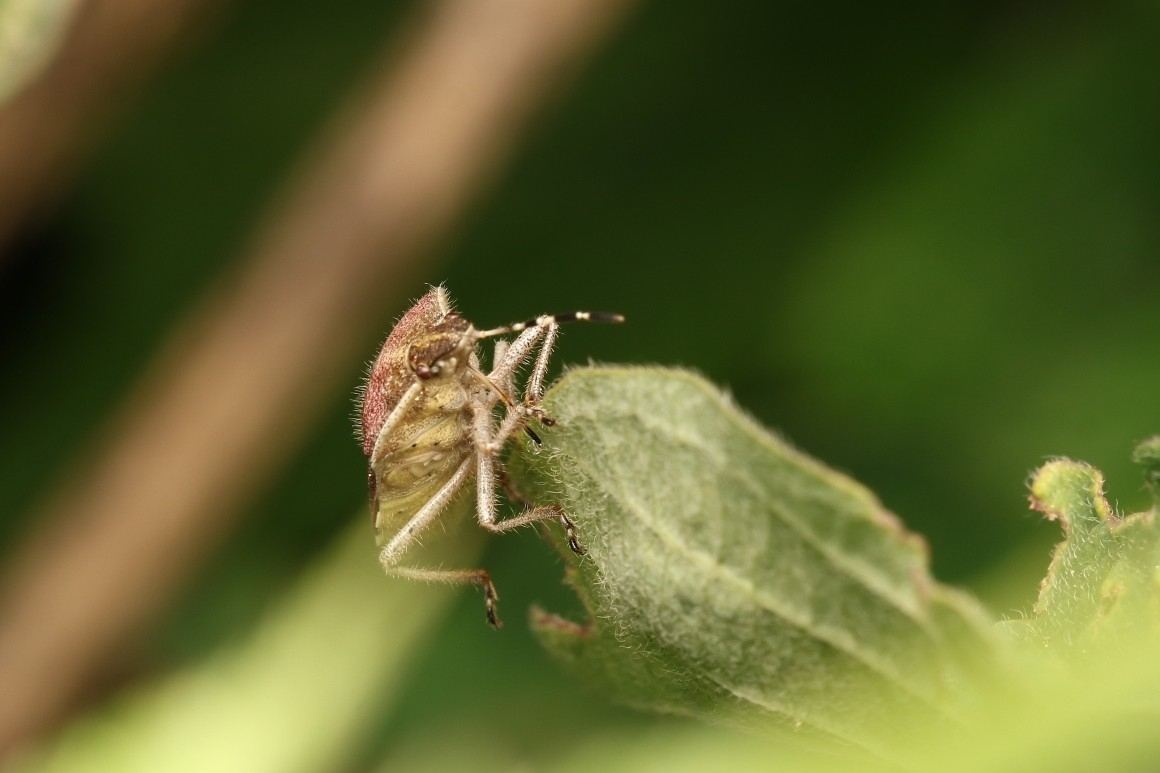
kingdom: Animalia
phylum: Arthropoda
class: Insecta
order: Hemiptera
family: Pentatomidae
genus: Dolycoris
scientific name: Dolycoris baccarum
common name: Sloe bug
